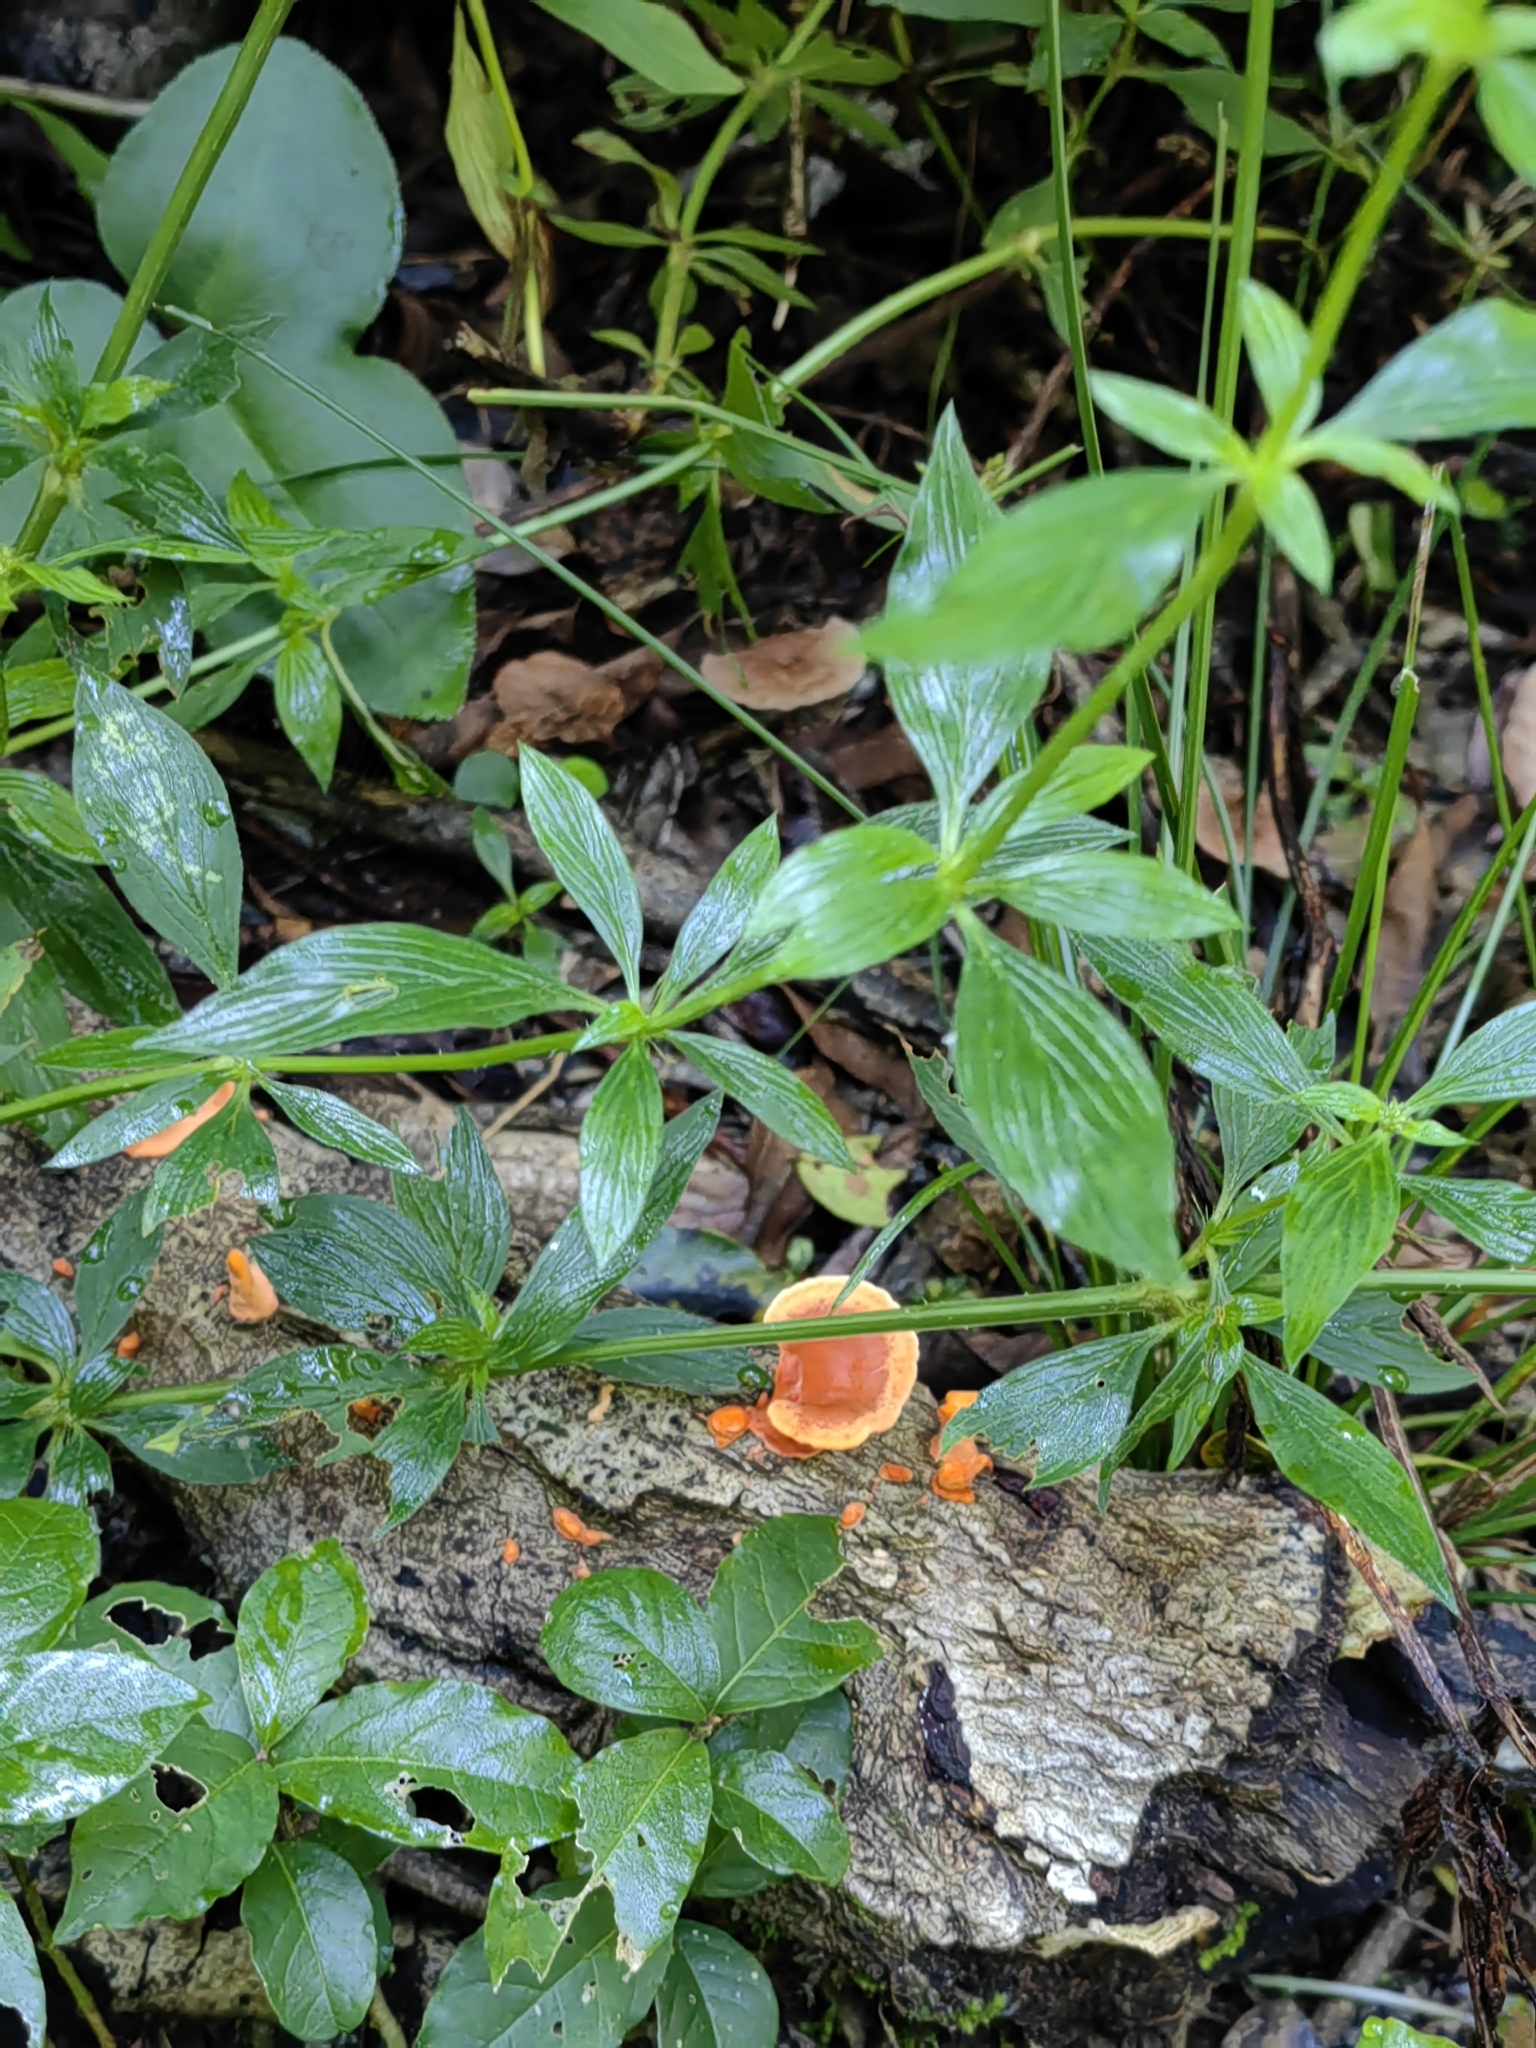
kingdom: Fungi
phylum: Basidiomycota
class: Agaricomycetes
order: Polyporales
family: Polyporaceae
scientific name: Polyporaceae
